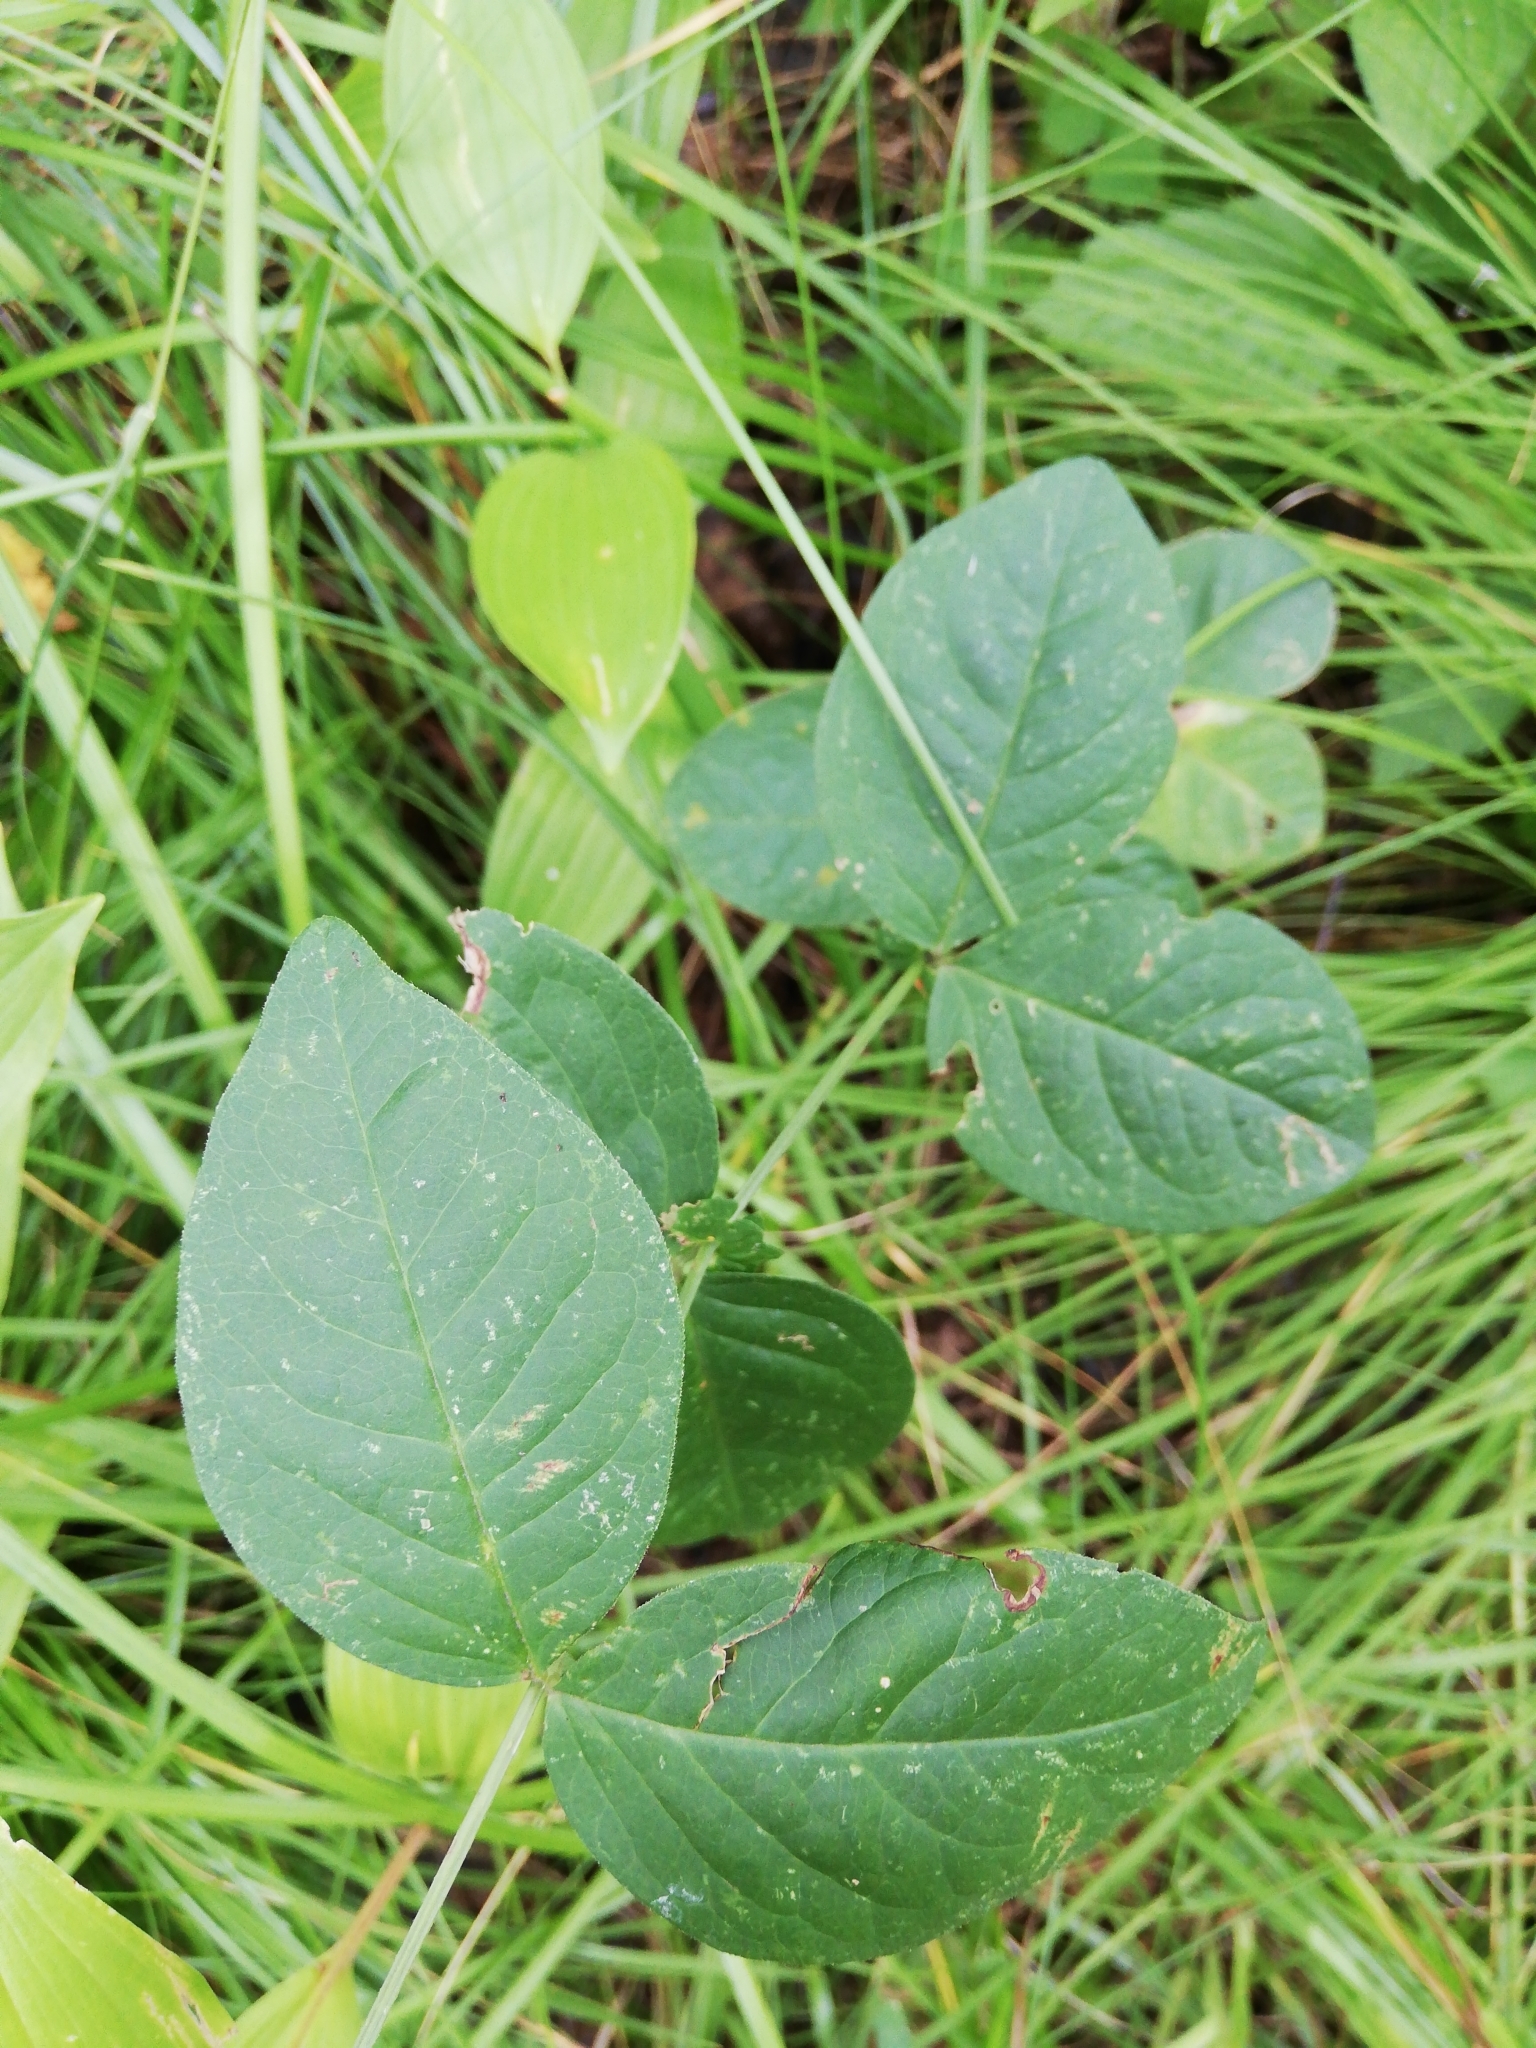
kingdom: Plantae
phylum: Tracheophyta
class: Magnoliopsida
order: Fabales
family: Fabaceae
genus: Vicia
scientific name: Vicia unijuga
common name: Two-leaf vetch
